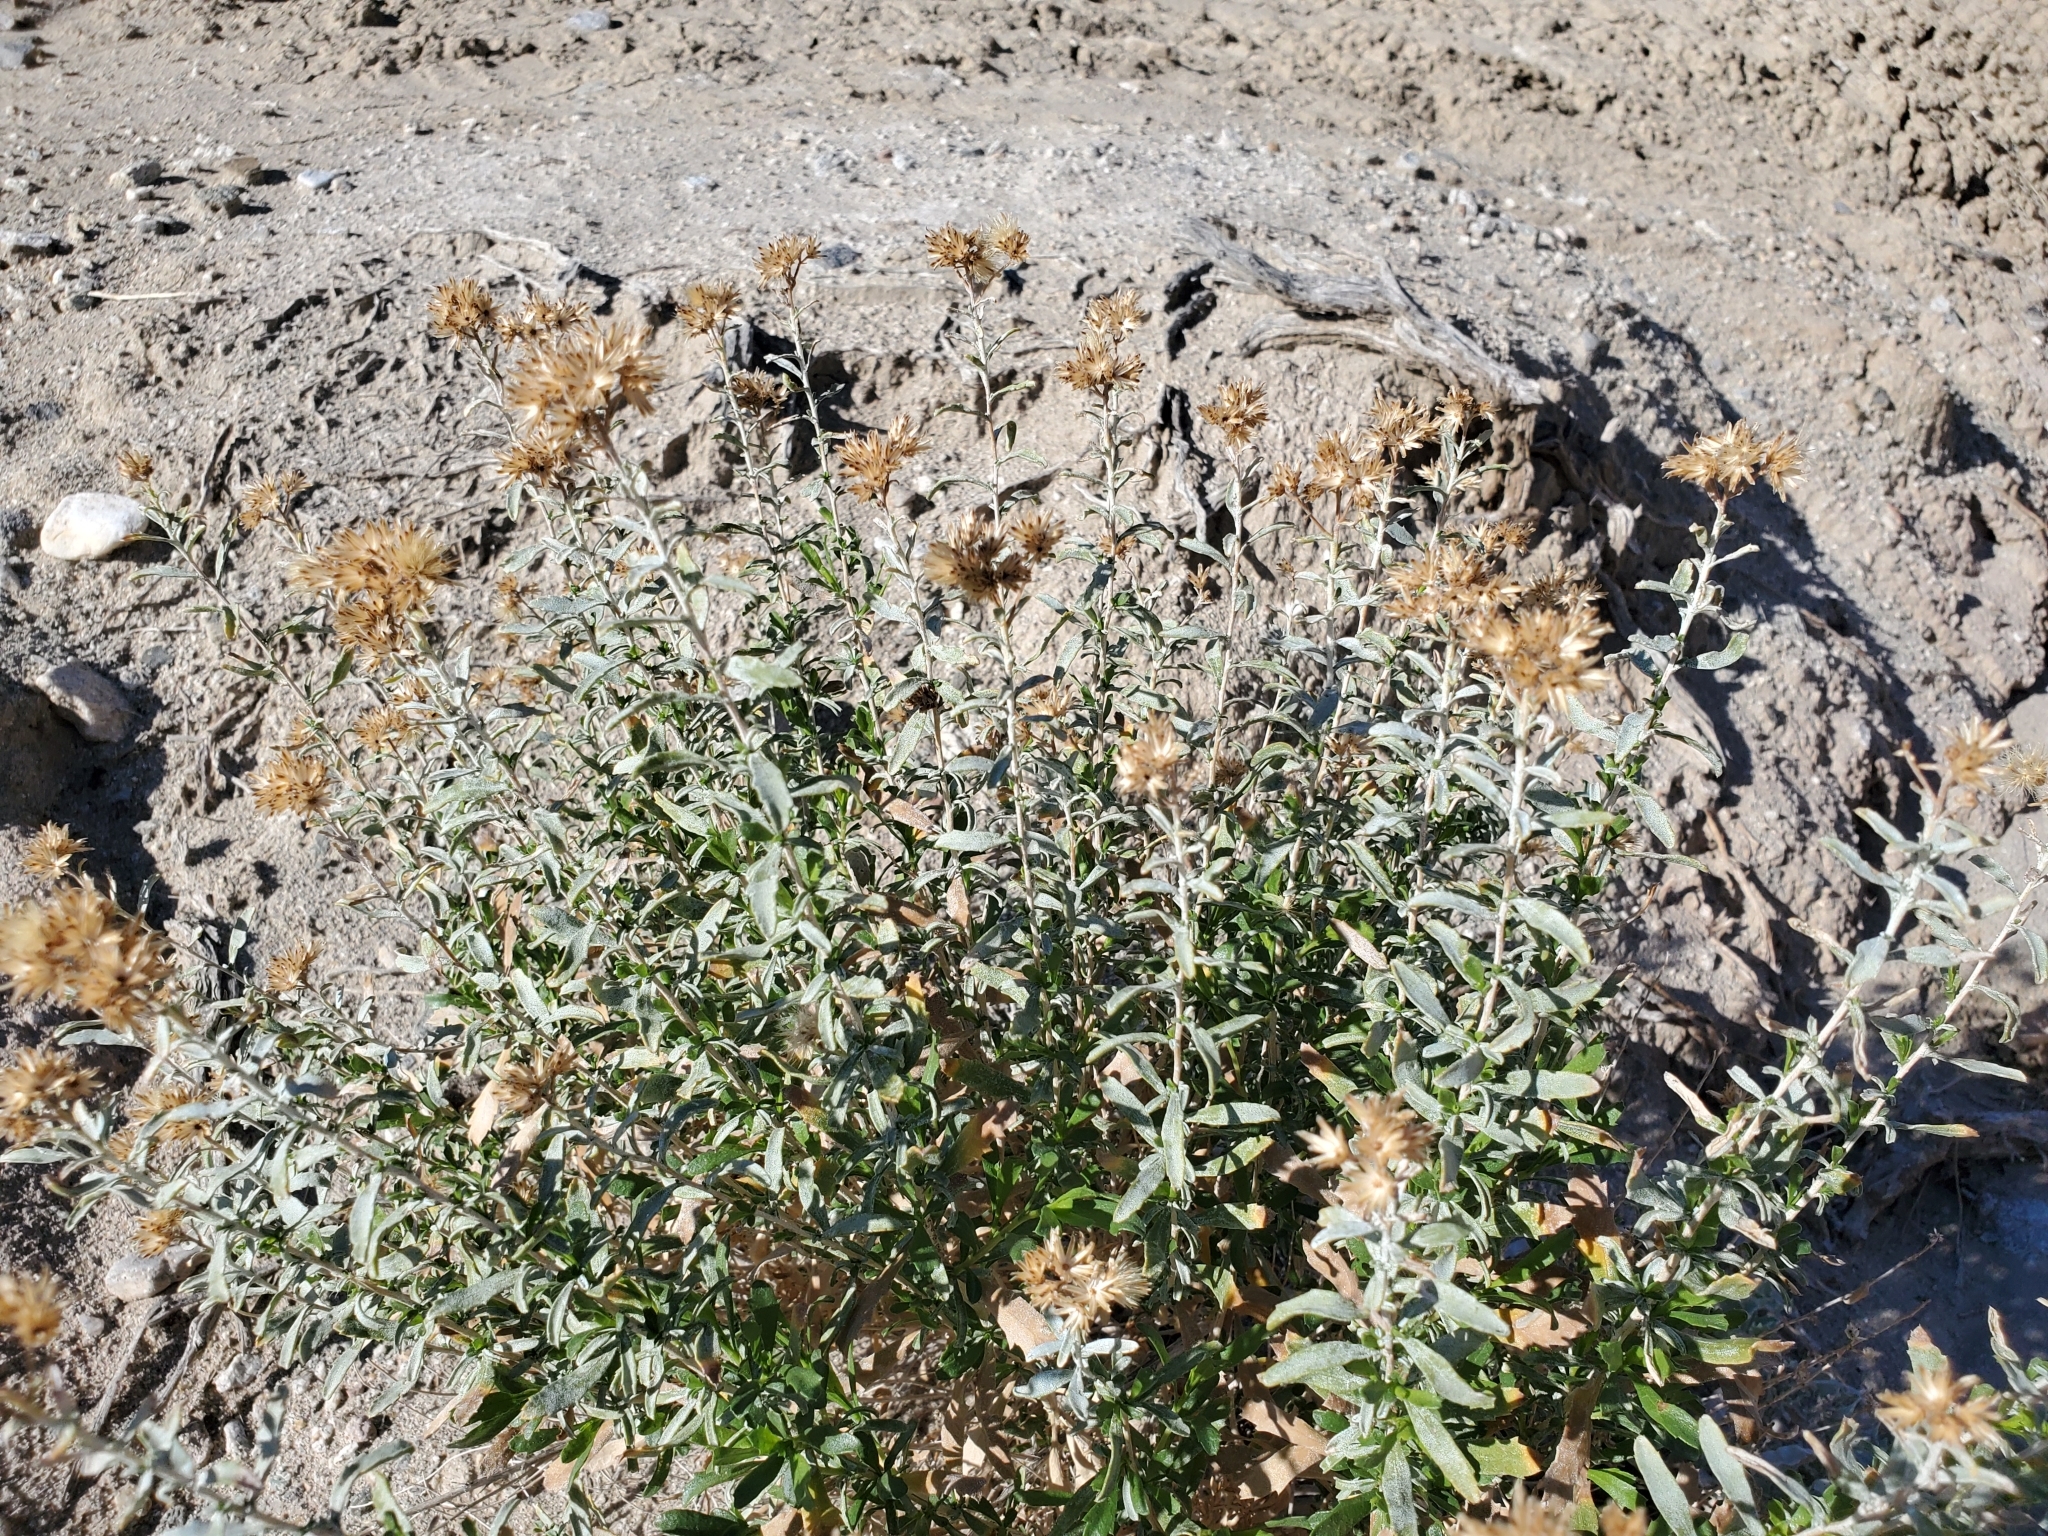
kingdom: Plantae
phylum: Tracheophyta
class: Magnoliopsida
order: Asterales
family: Asteraceae
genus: Isocoma
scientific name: Isocoma acradenia
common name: Alkali jimmyweed
